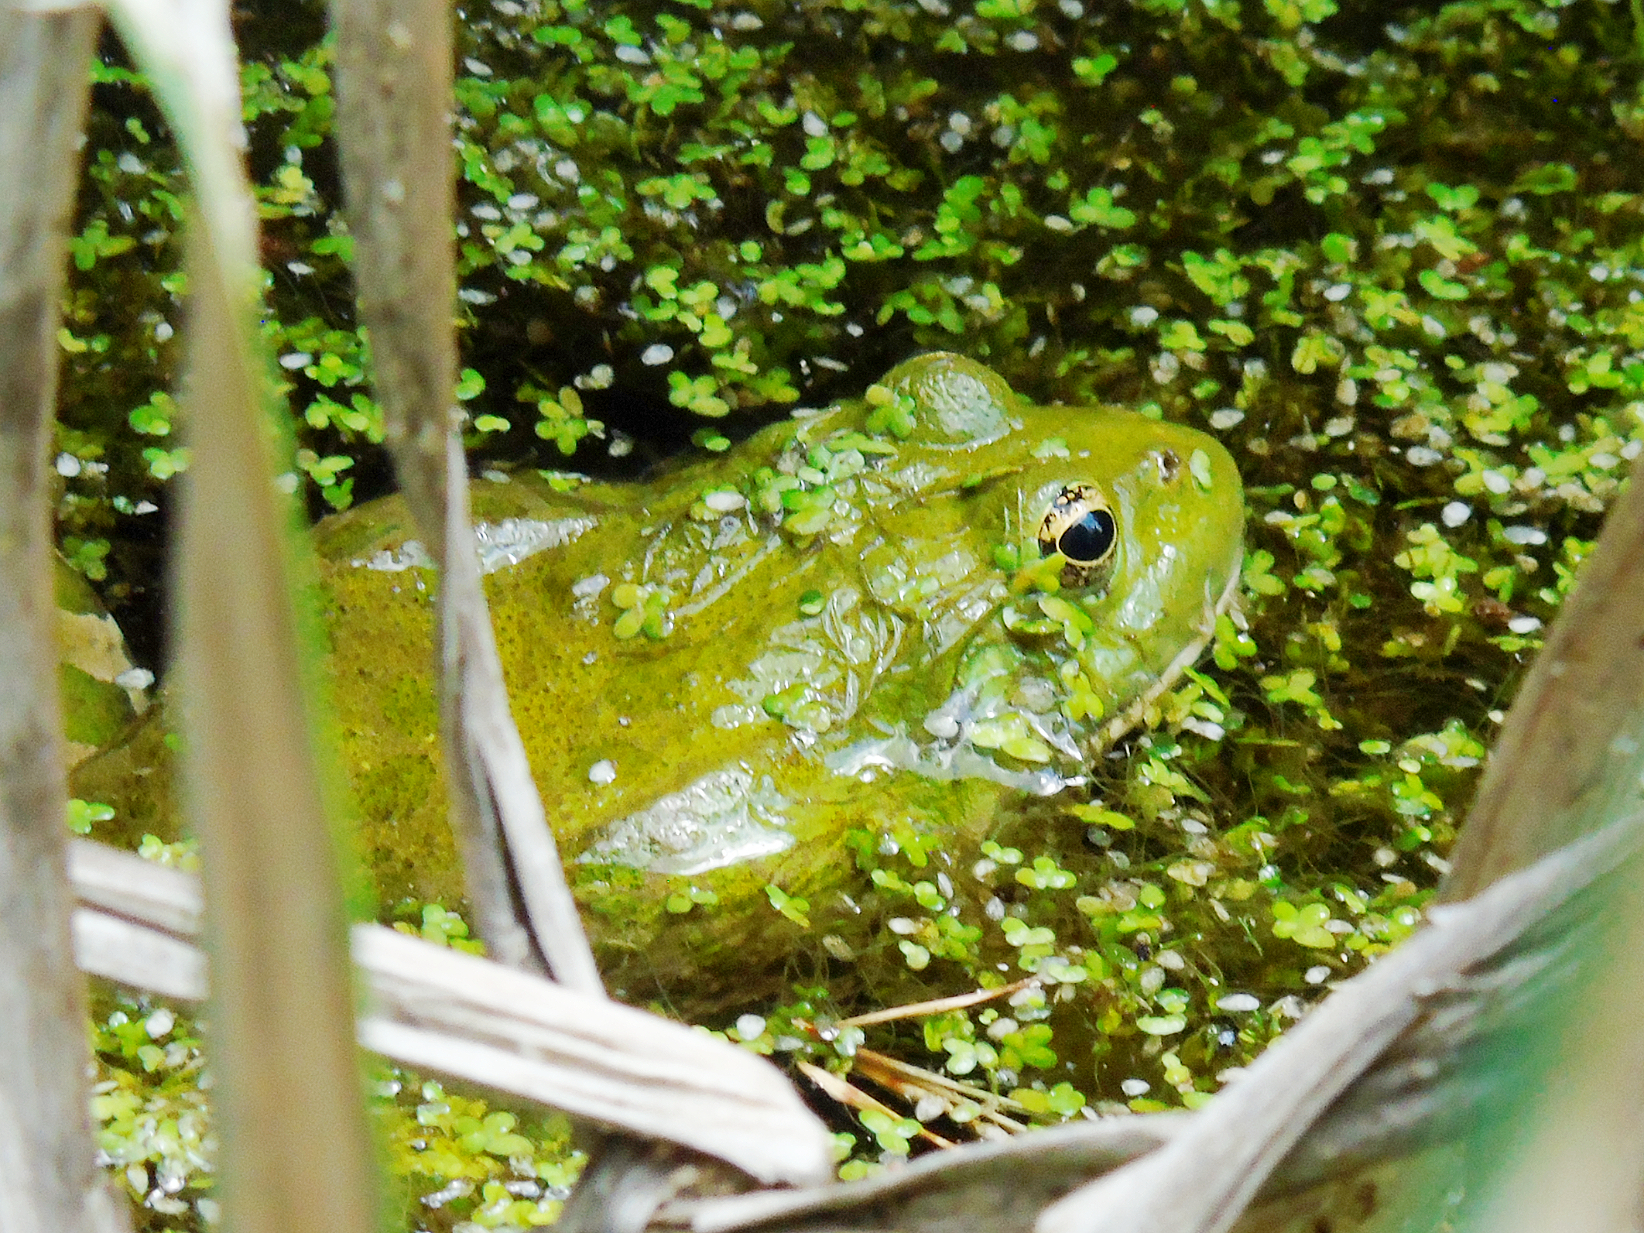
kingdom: Animalia
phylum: Chordata
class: Amphibia
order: Anura
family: Ranidae
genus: Pelophylax
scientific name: Pelophylax ridibundus
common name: Marsh frog
